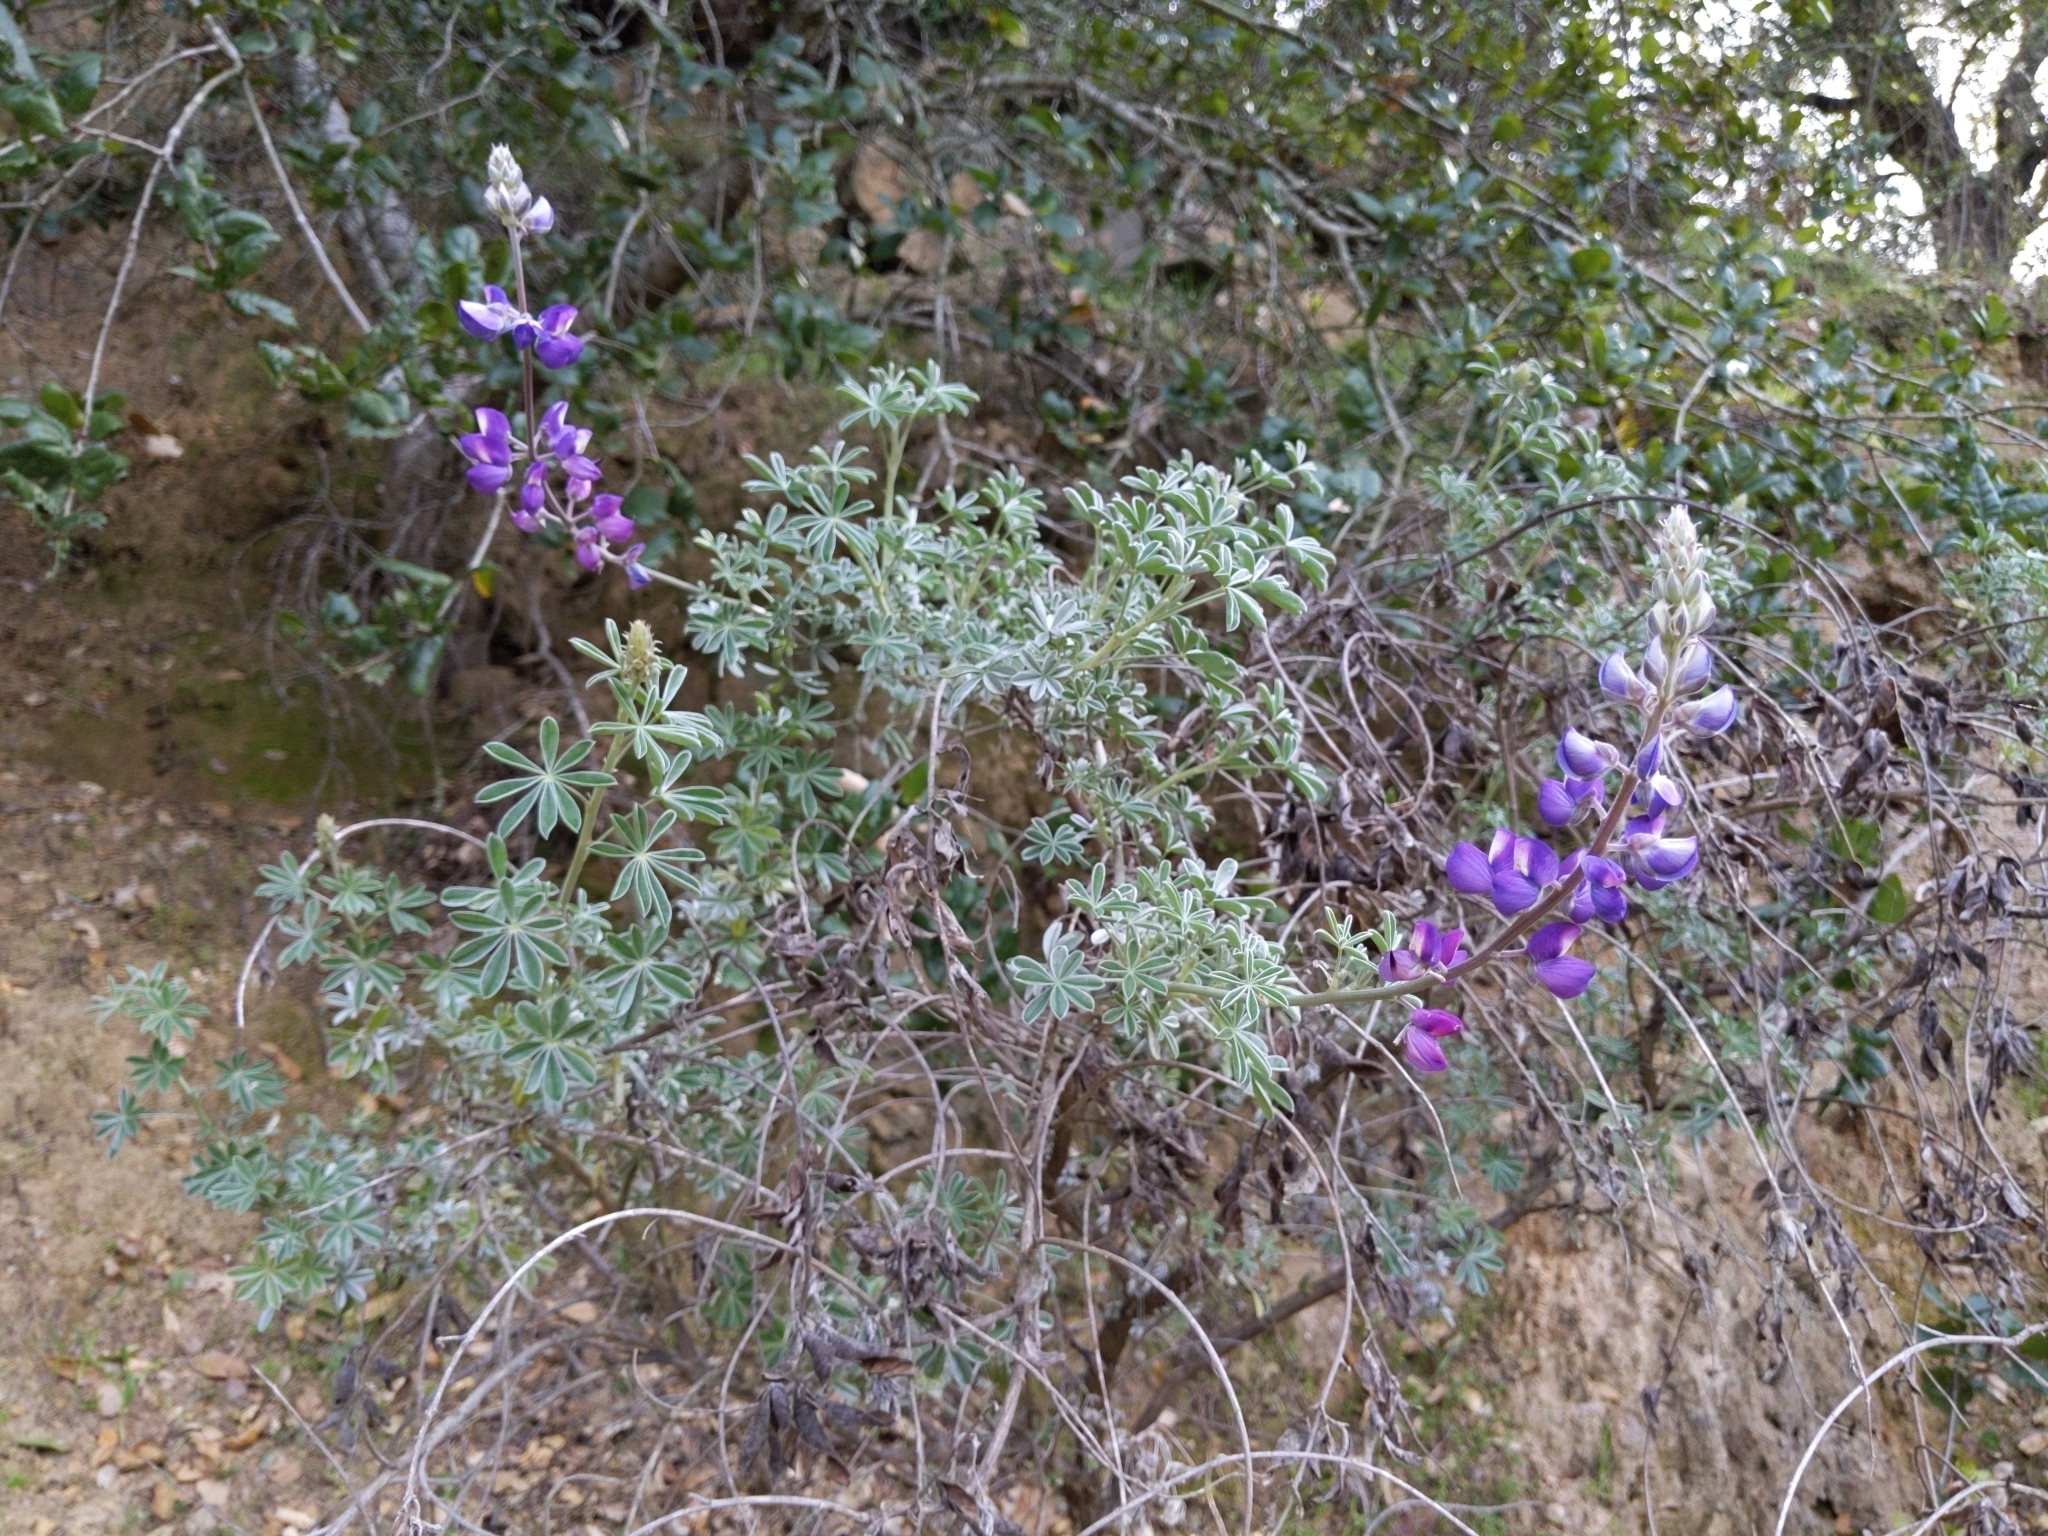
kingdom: Plantae
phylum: Tracheophyta
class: Magnoliopsida
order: Fabales
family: Fabaceae
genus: Lupinus
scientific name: Lupinus albifrons
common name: Foothill lupine
